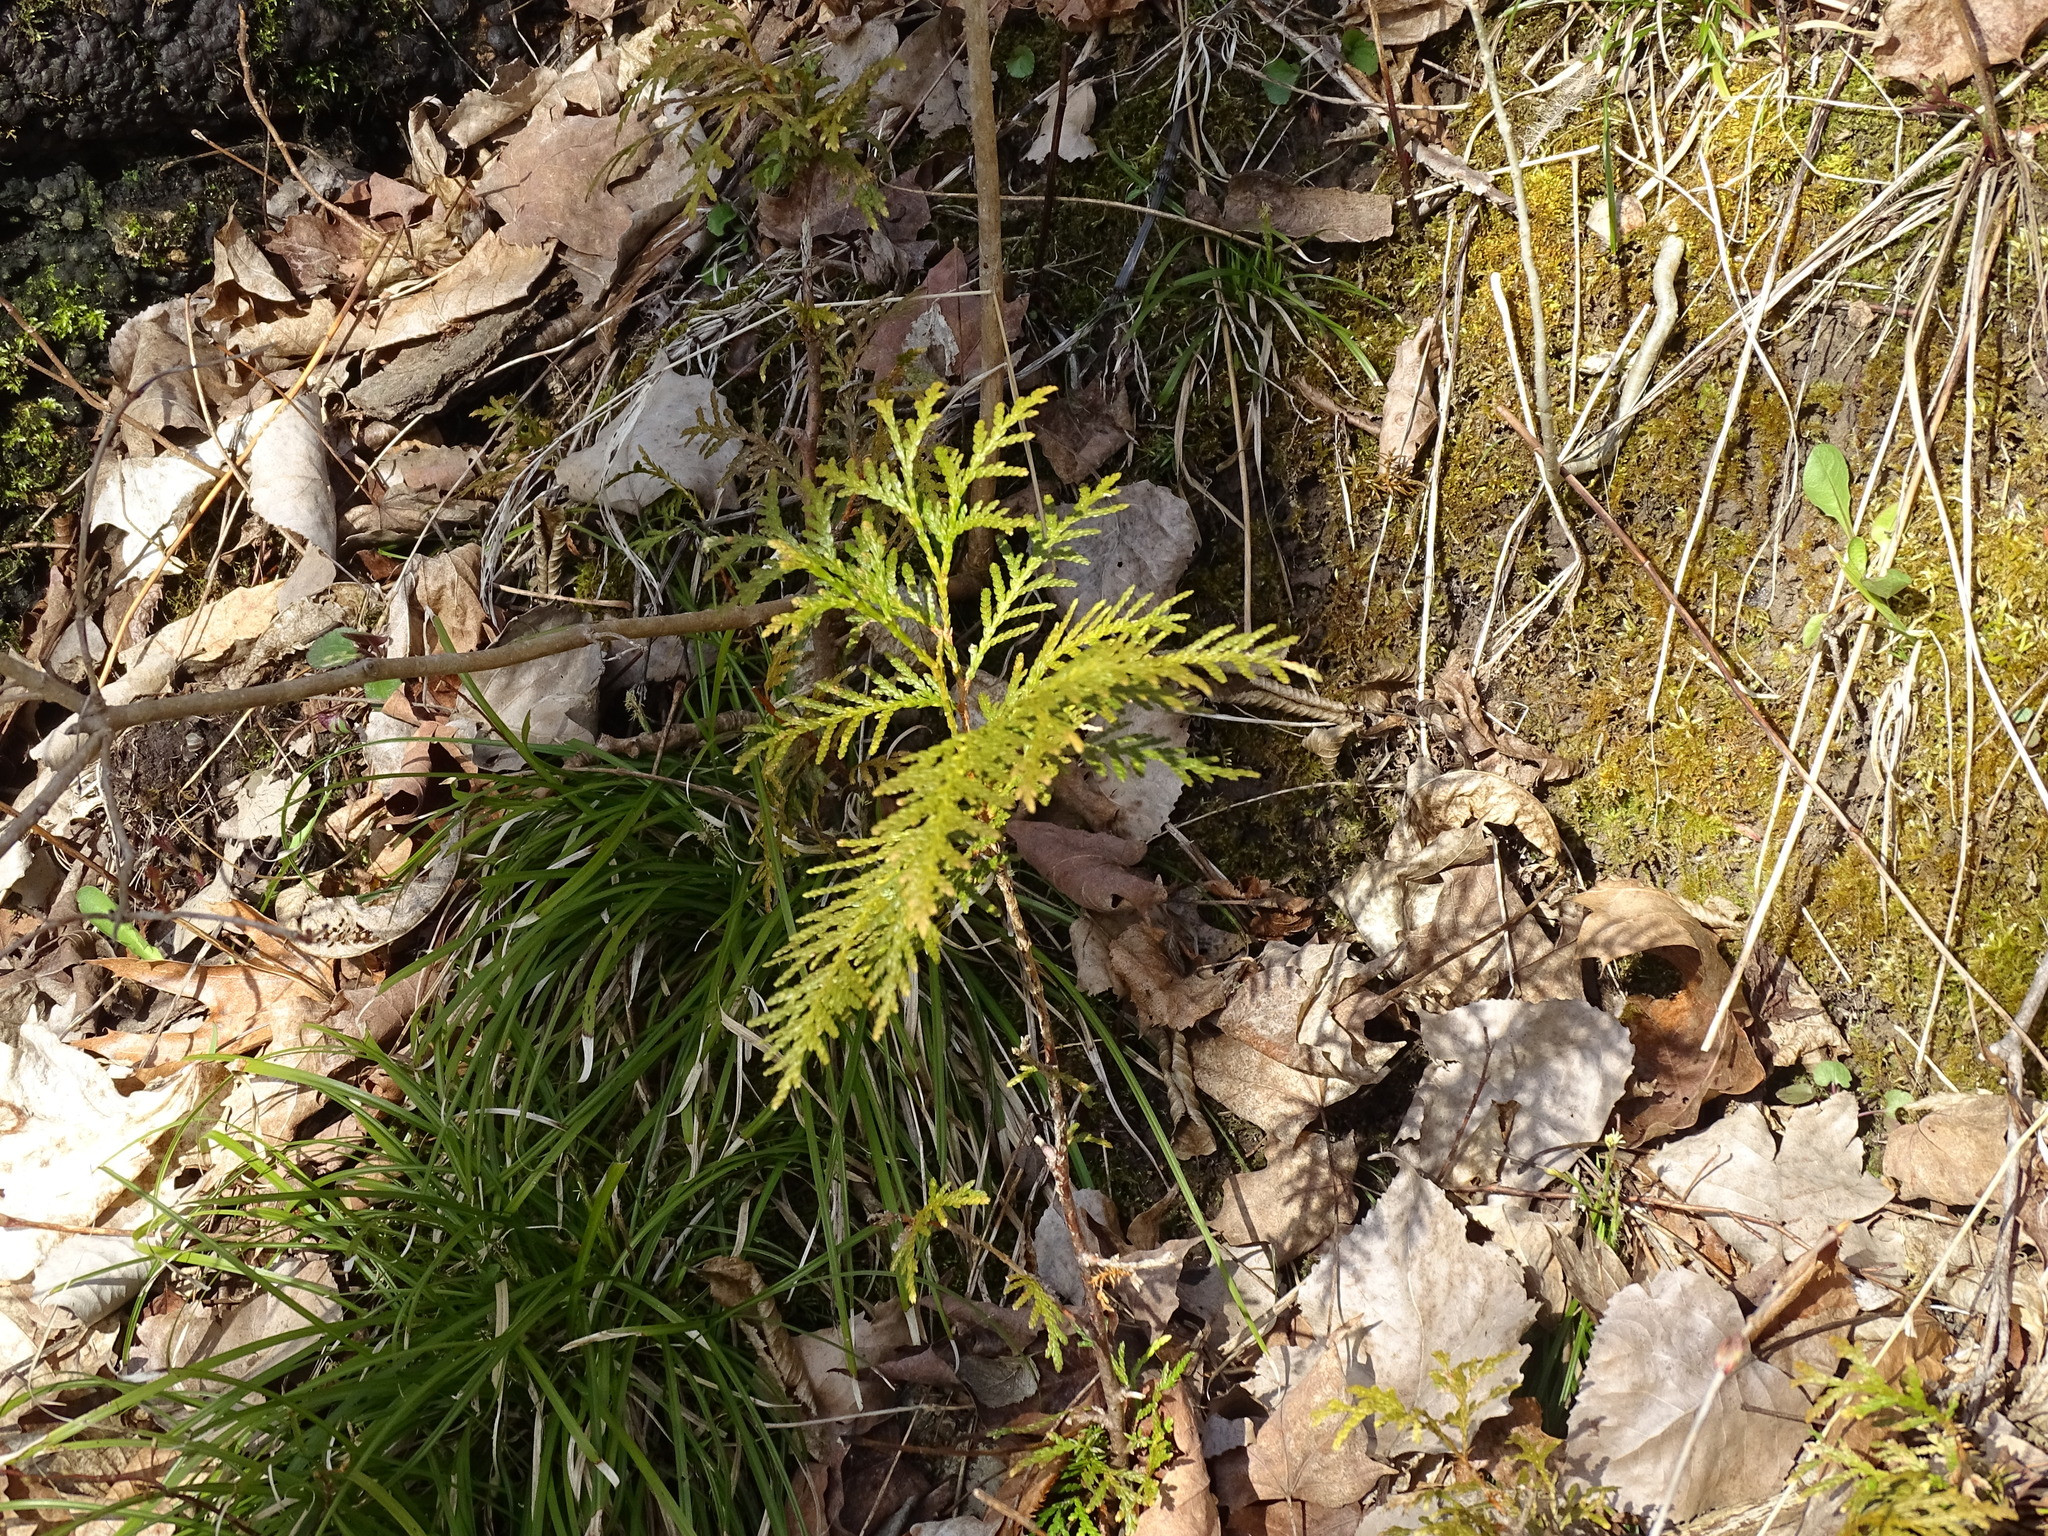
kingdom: Plantae
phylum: Tracheophyta
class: Pinopsida
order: Pinales
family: Cupressaceae
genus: Thuja
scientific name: Thuja occidentalis
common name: Northern white-cedar
